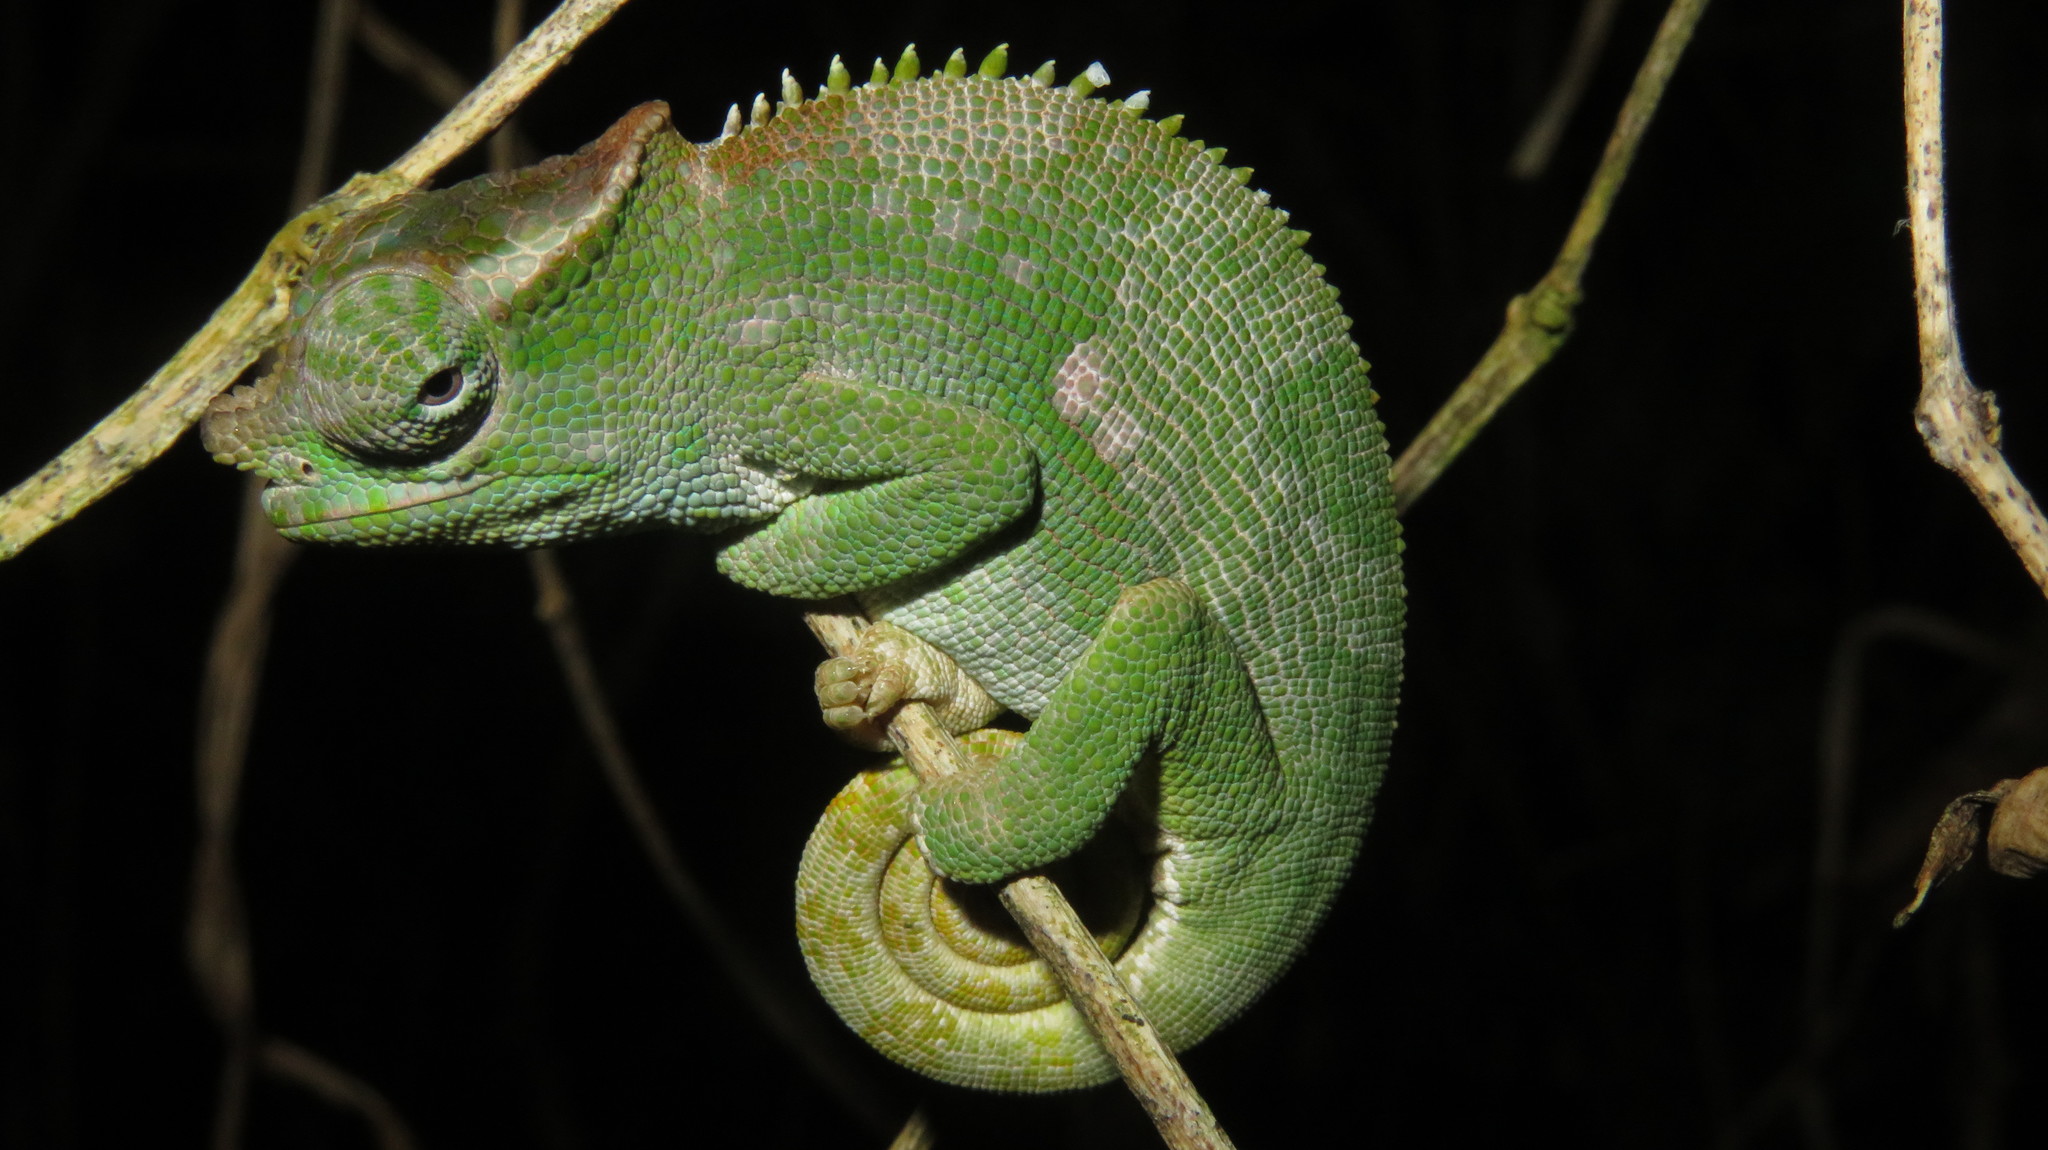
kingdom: Animalia
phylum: Chordata
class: Squamata
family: Chamaeleonidae
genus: Kinyongia
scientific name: Kinyongia multituberculata
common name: West usambara blade-horned chameleon
